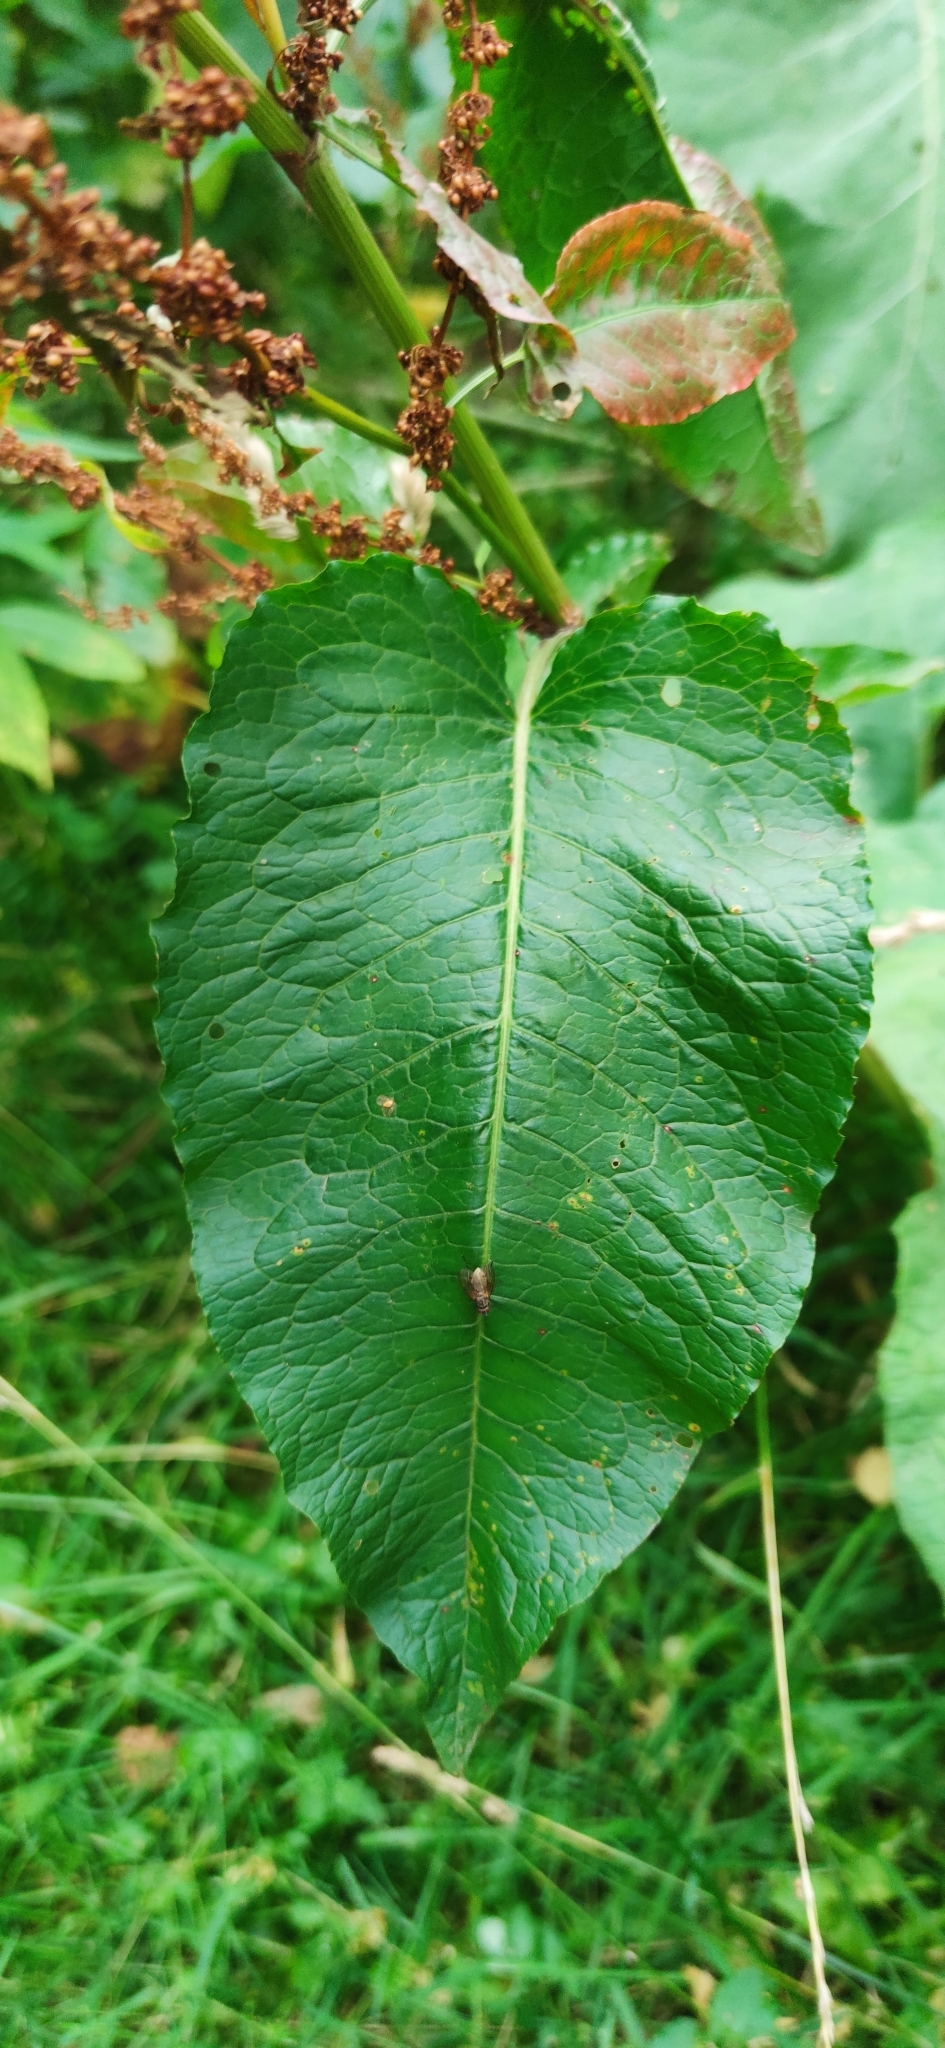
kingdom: Plantae
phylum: Tracheophyta
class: Magnoliopsida
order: Caryophyllales
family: Polygonaceae
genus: Rumex
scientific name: Rumex obtusifolius
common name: Bitter dock
